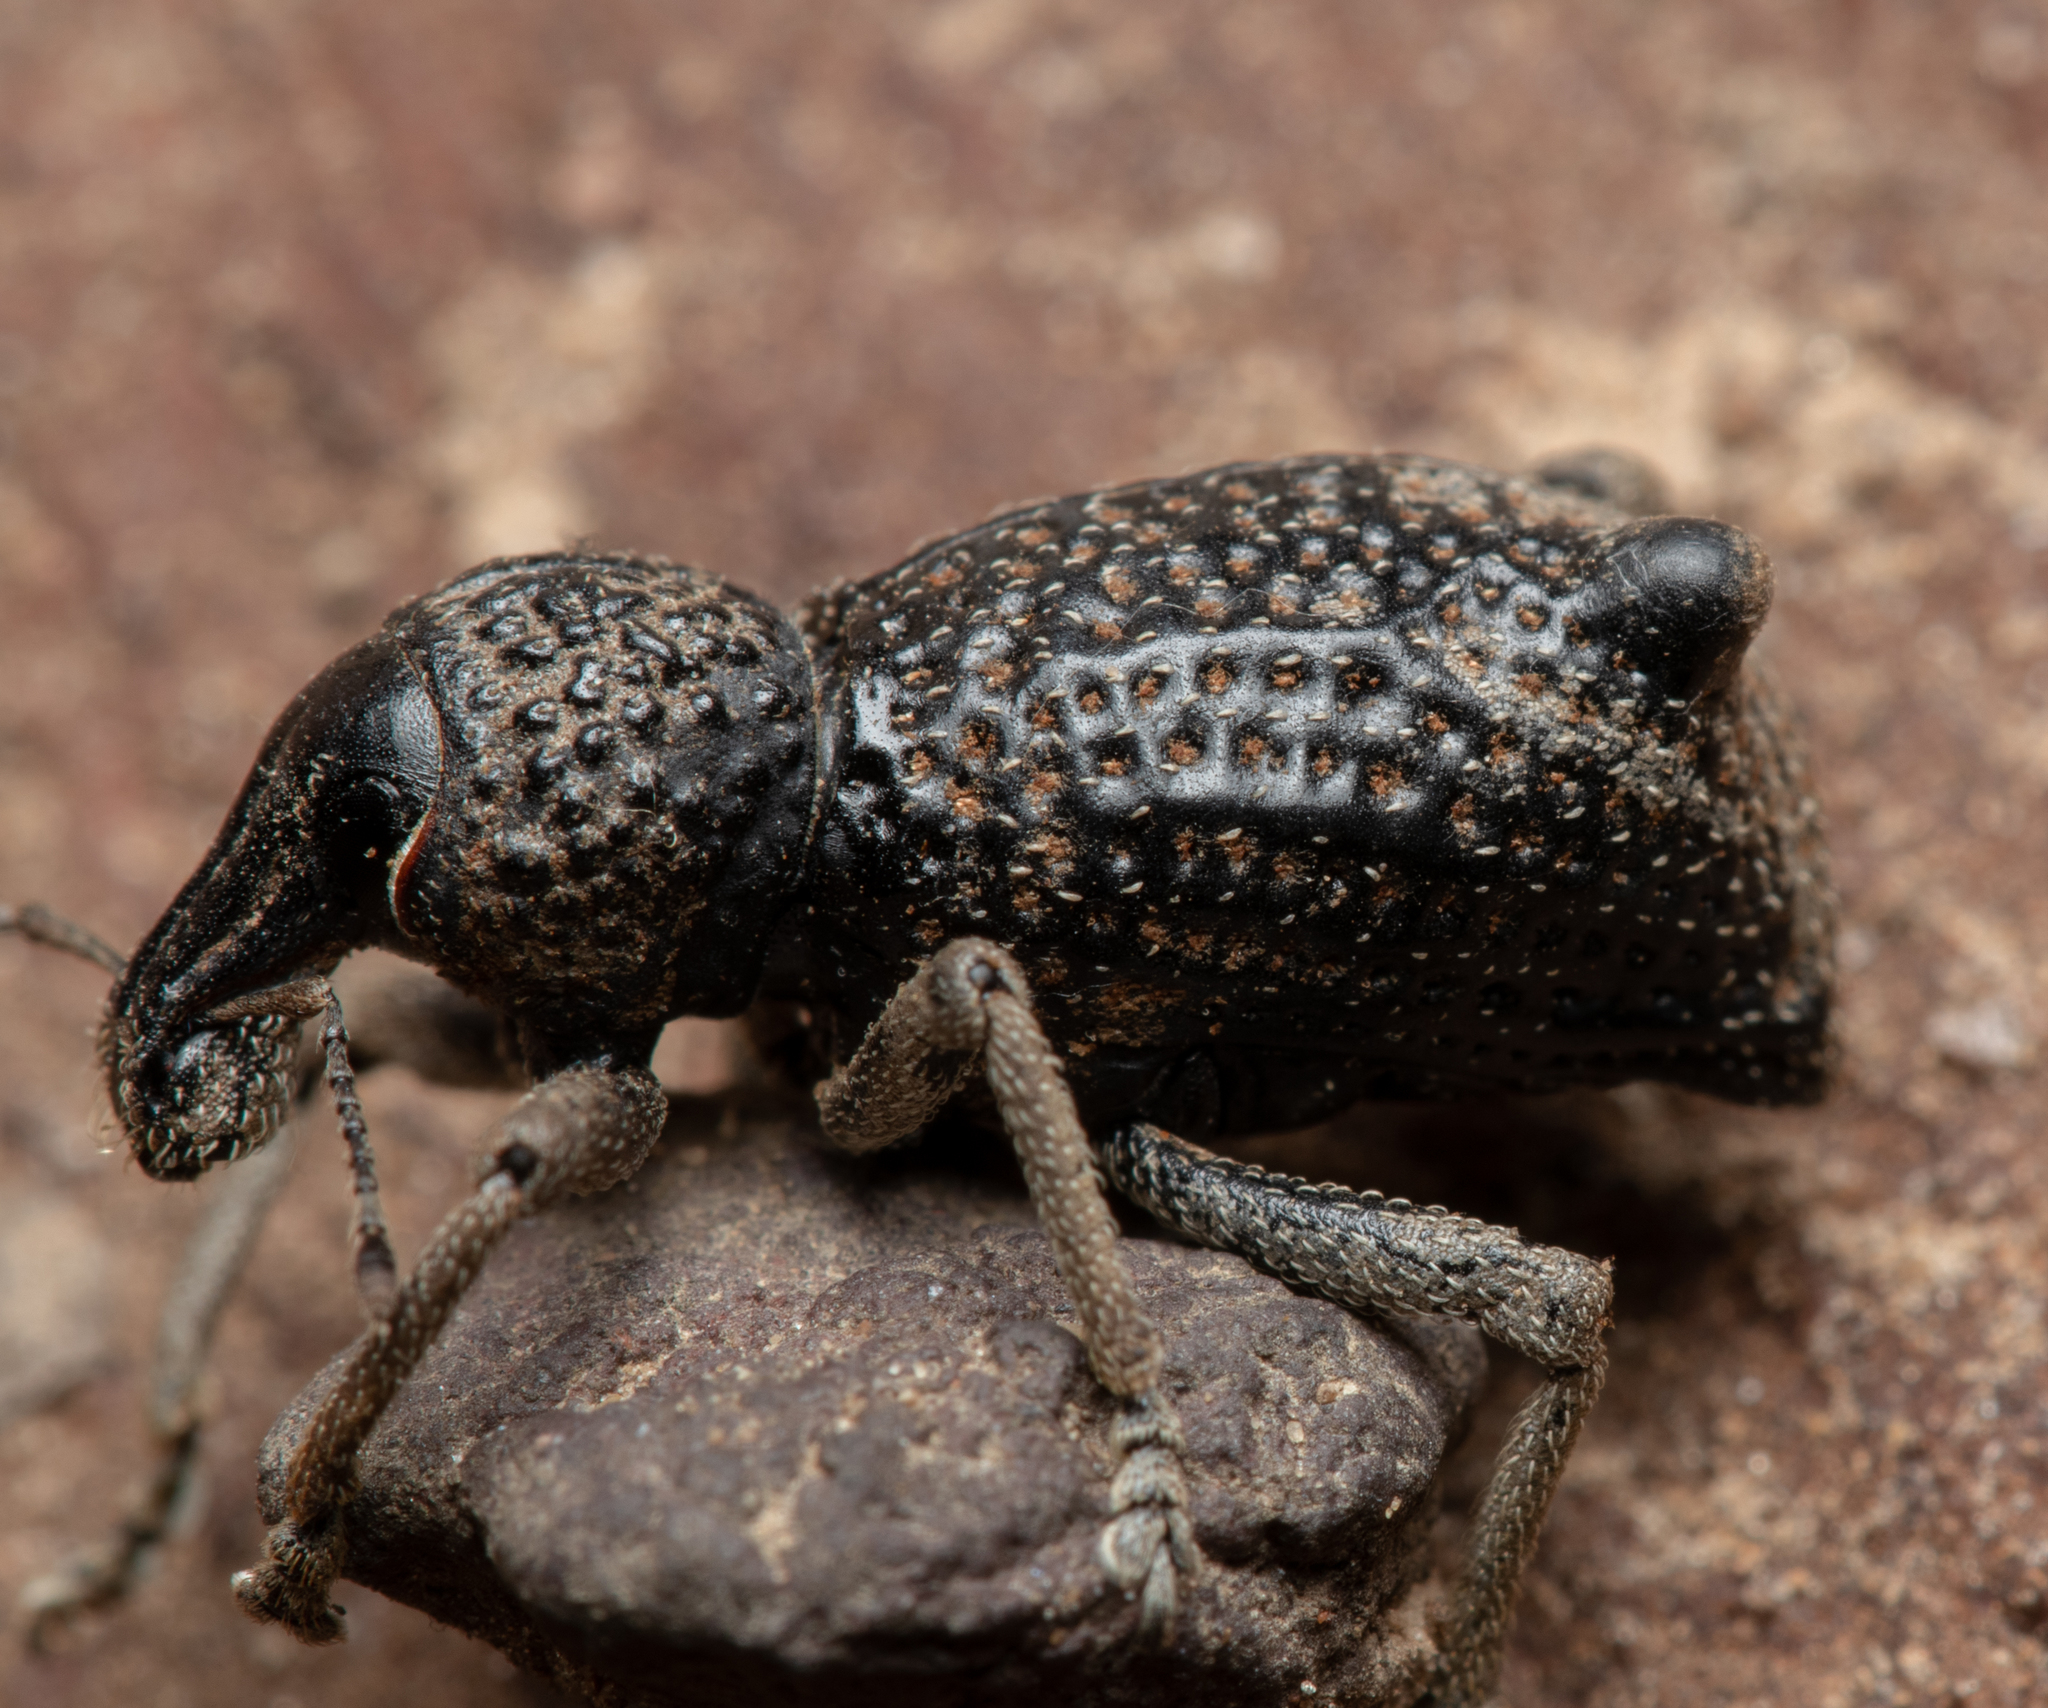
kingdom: Animalia
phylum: Arthropoda
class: Insecta
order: Coleoptera
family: Curculionidae
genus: Zymaus
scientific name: Zymaus binodosus
